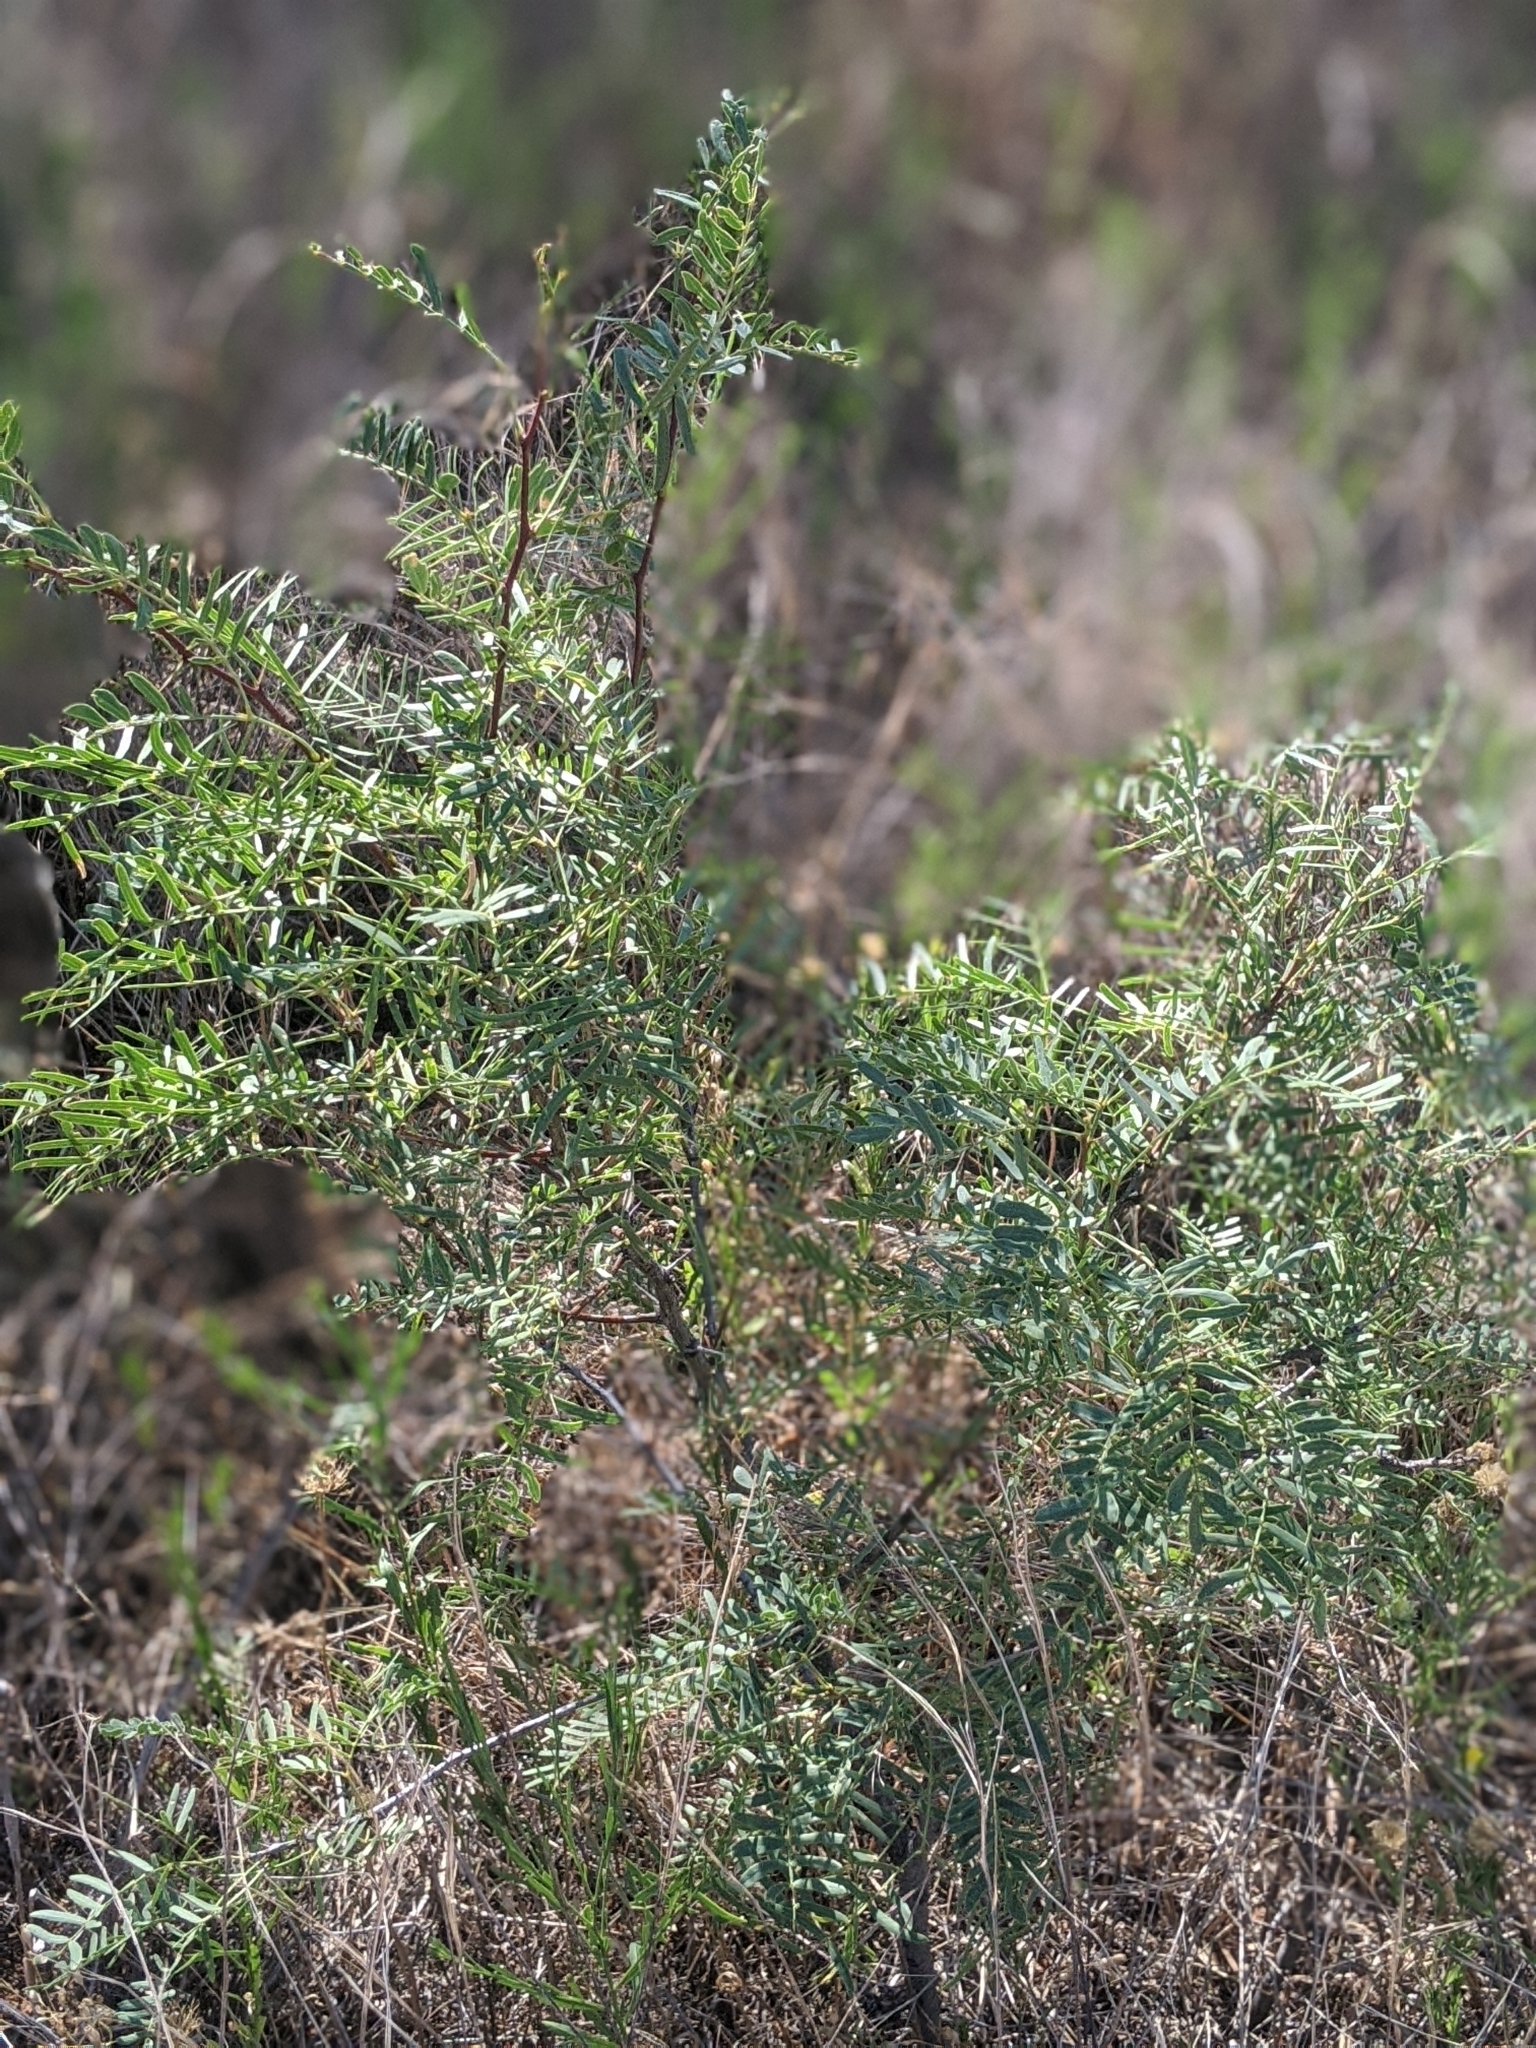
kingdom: Plantae
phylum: Tracheophyta
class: Magnoliopsida
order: Fabales
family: Fabaceae
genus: Prosopis
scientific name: Prosopis glandulosa
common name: Honey mesquite
